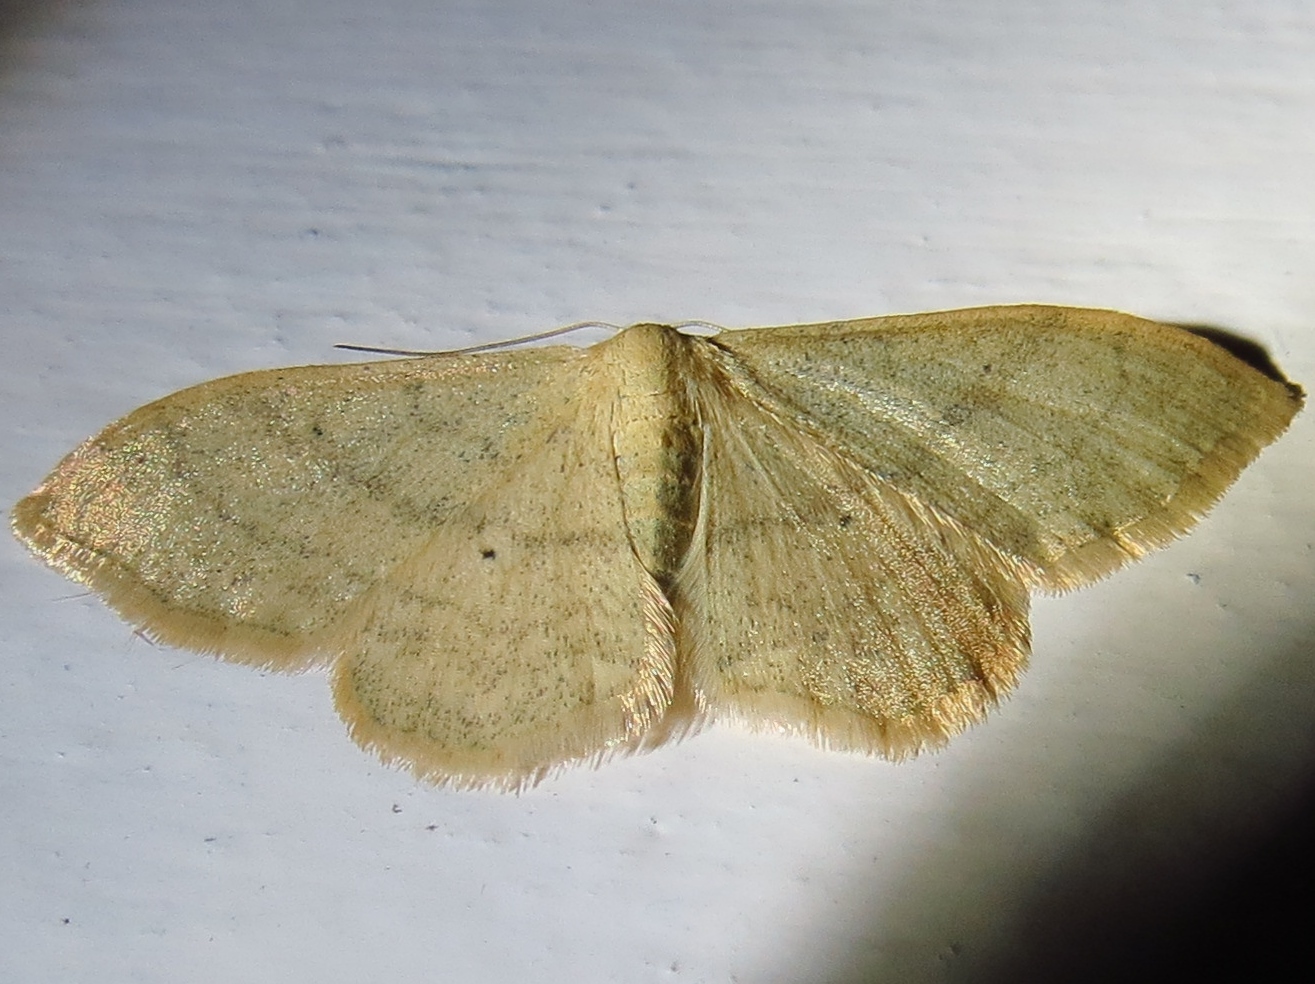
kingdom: Animalia
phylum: Arthropoda
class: Insecta
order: Lepidoptera
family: Geometridae
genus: Idaea
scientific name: Idaea straminata
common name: Plain wave
